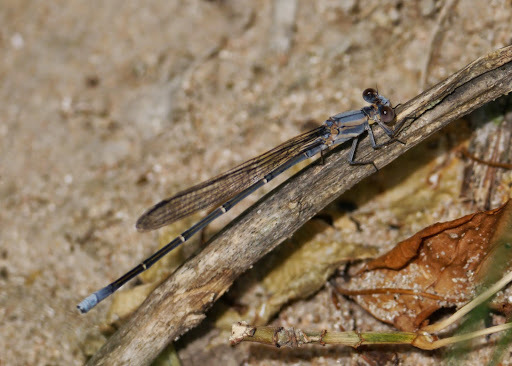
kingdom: Animalia
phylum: Arthropoda
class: Insecta
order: Odonata
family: Coenagrionidae
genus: Argia
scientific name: Argia moesta
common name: Powdered dancer
